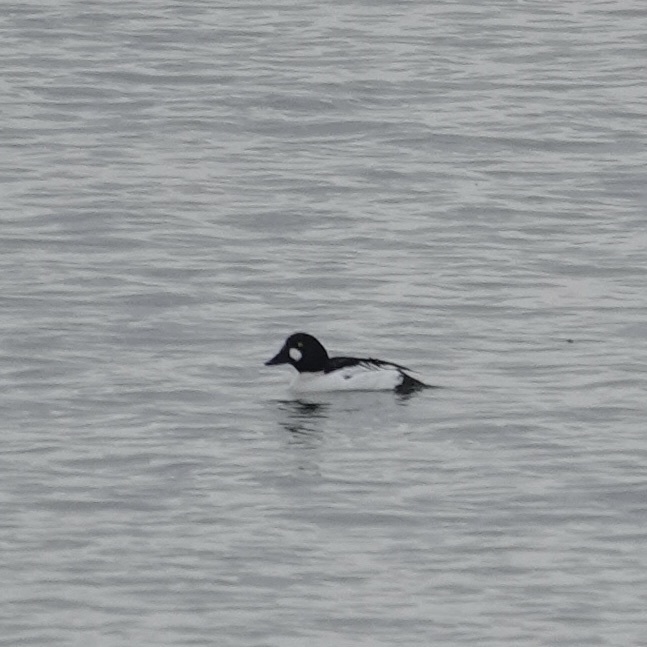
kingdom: Animalia
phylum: Chordata
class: Aves
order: Anseriformes
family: Anatidae
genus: Bucephala
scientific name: Bucephala clangula
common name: Common goldeneye
